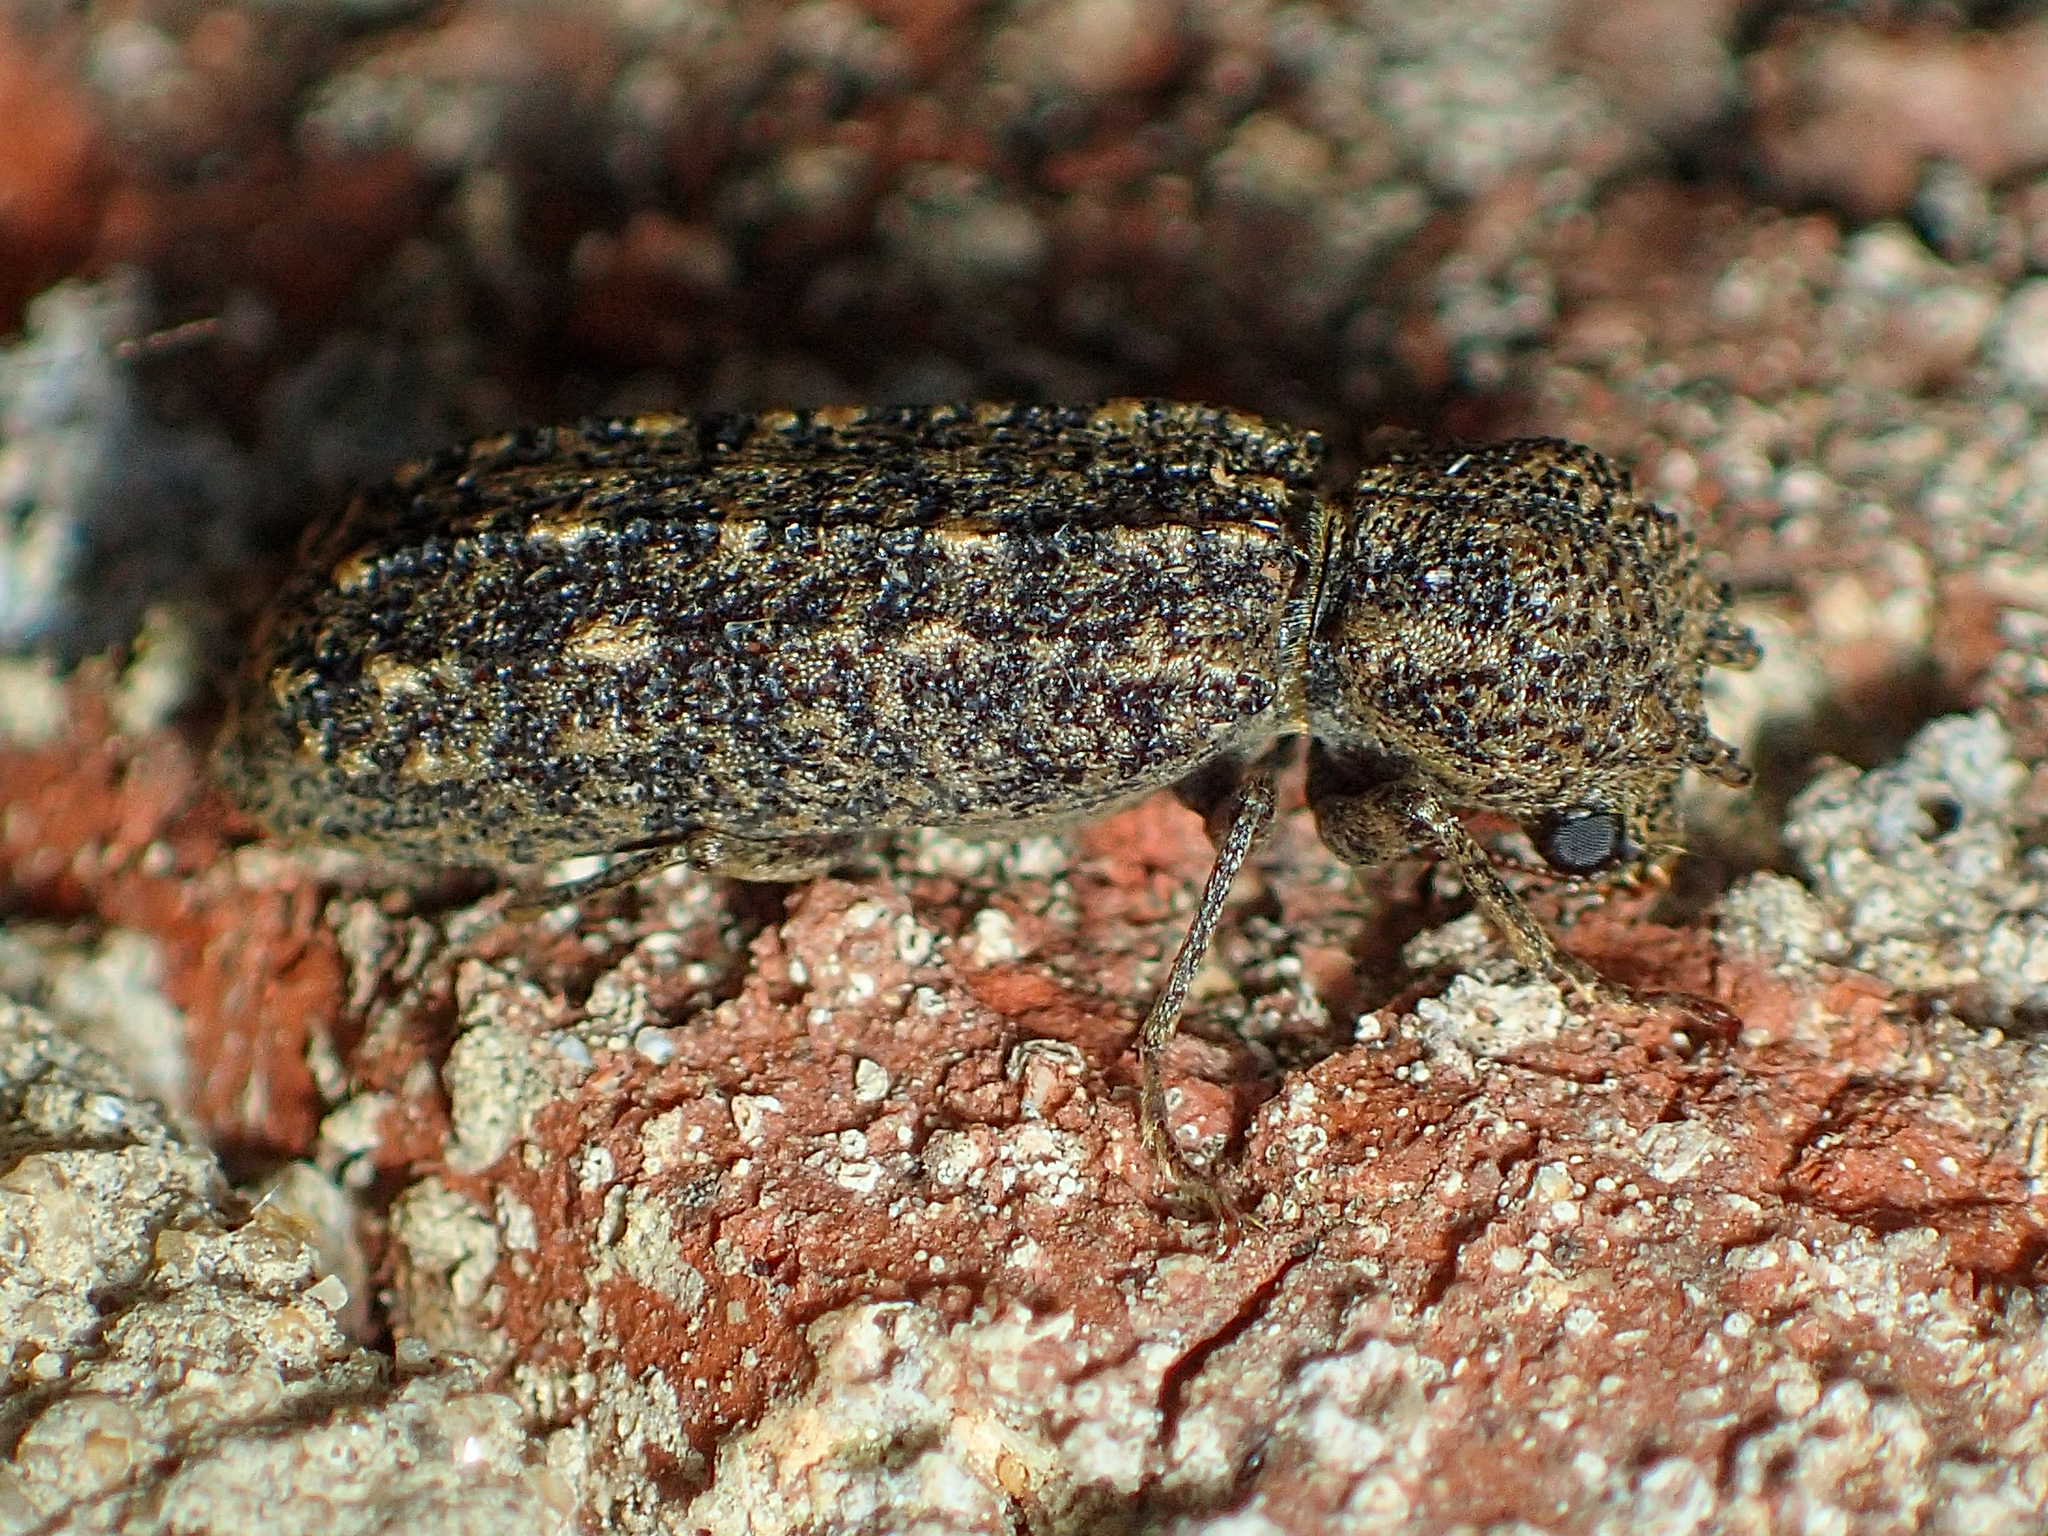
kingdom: Animalia
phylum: Arthropoda
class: Insecta
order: Coleoptera
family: Bostrichidae
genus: Lichenophanes
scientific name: Lichenophanes bicornis
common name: Two-horned powder-post beetle
